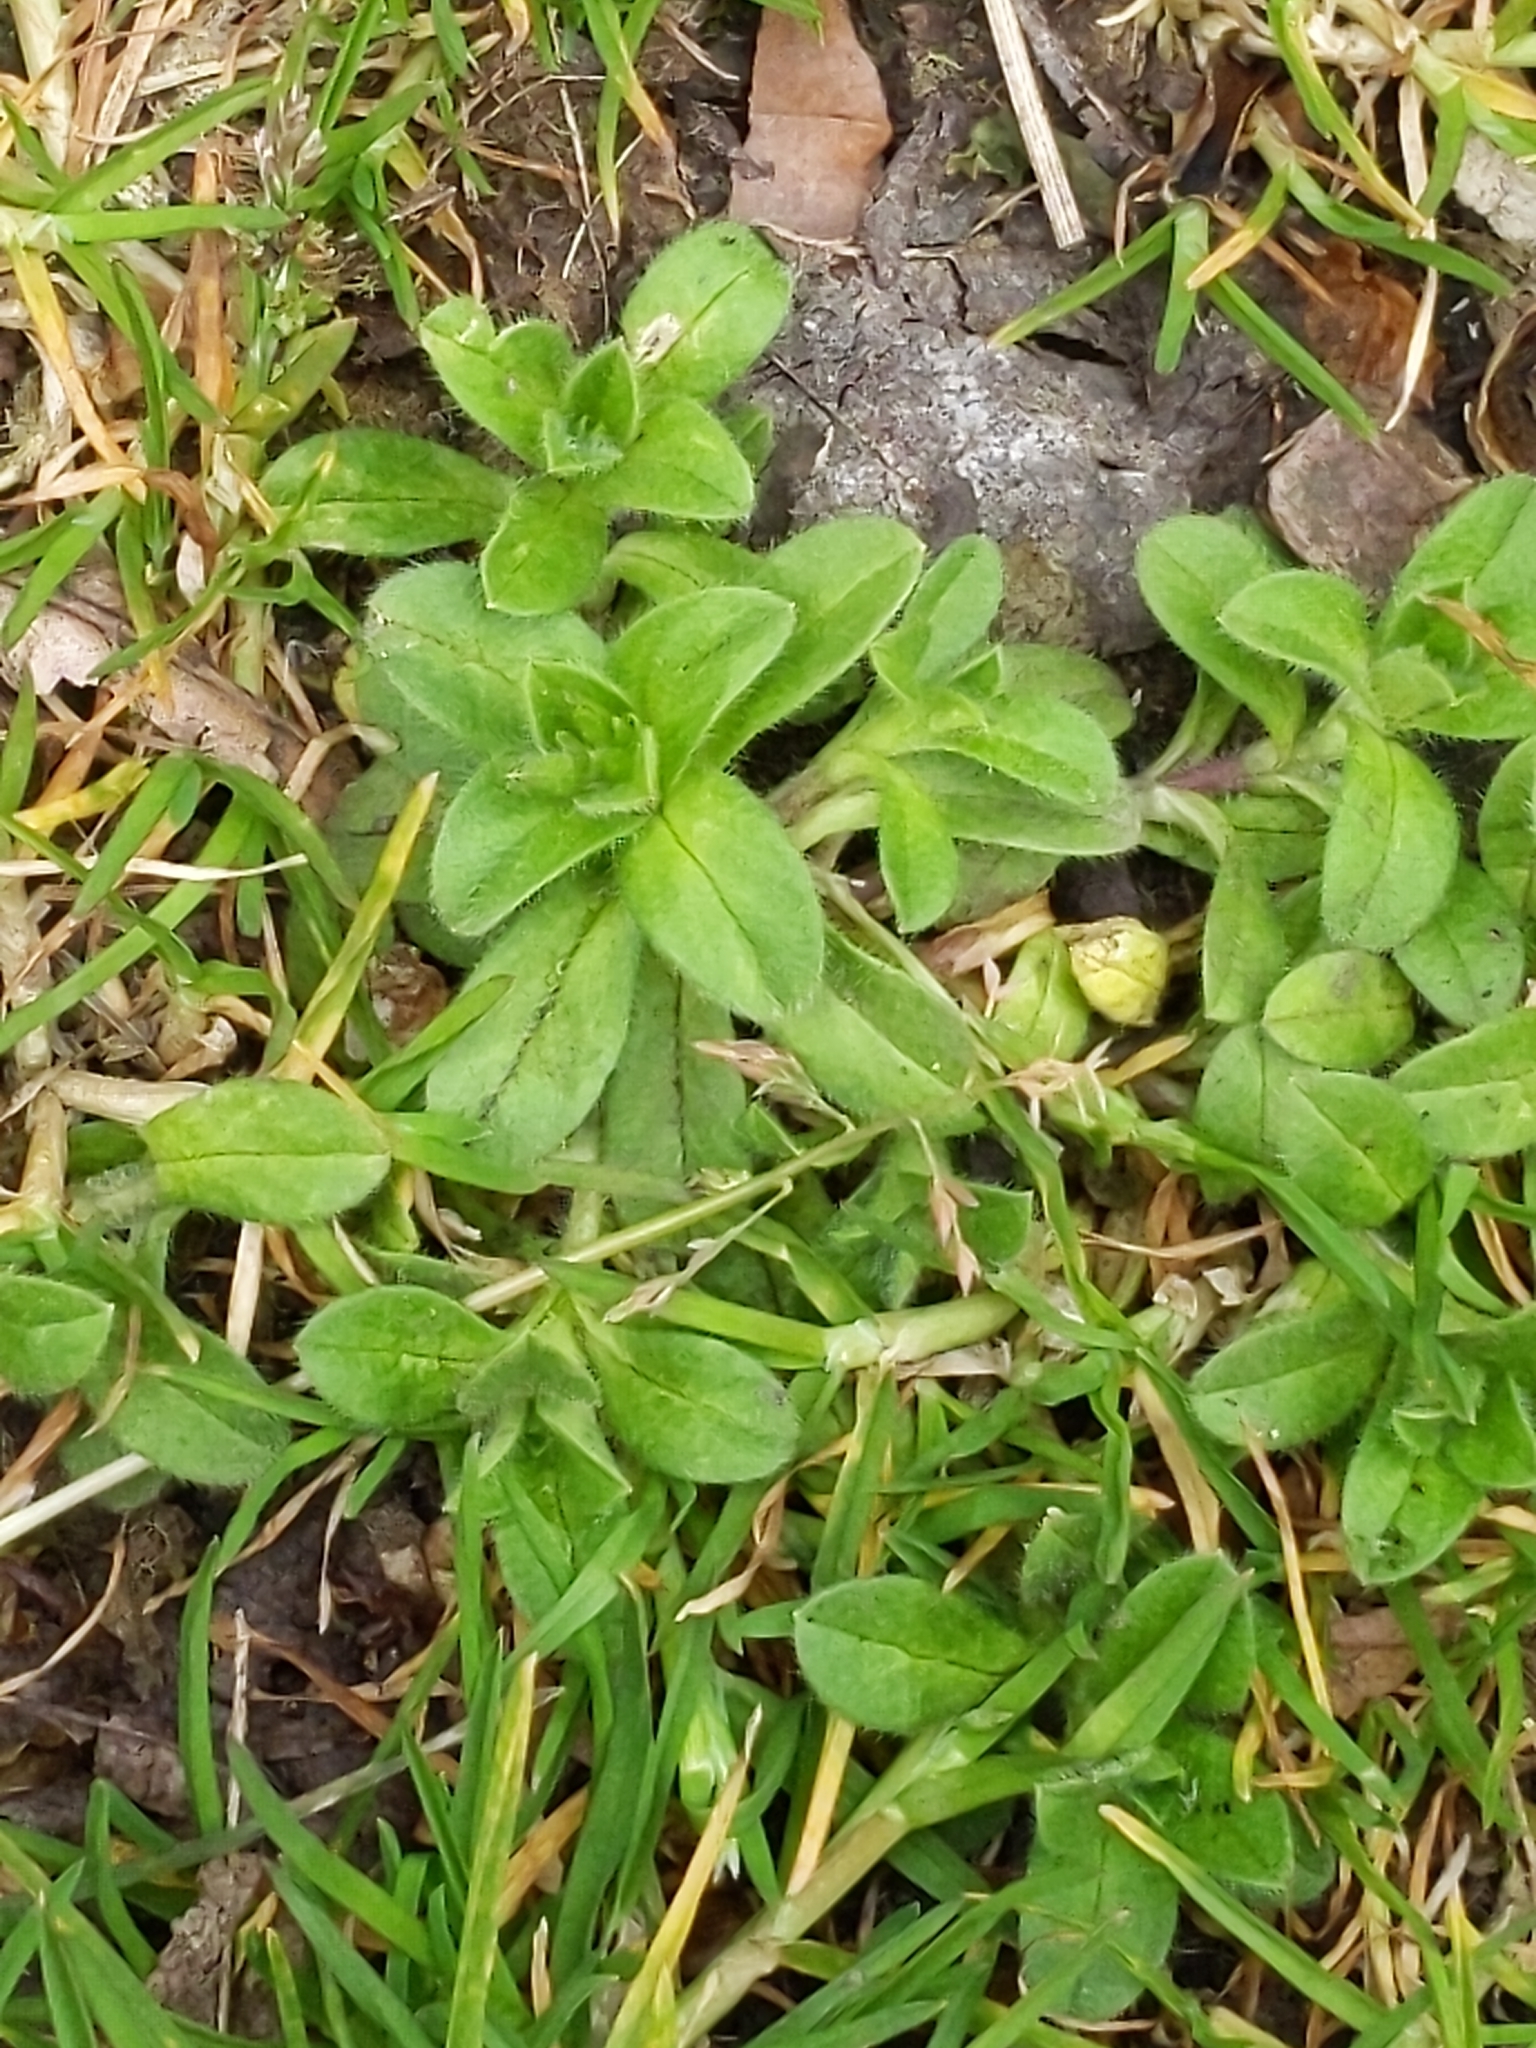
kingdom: Plantae
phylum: Tracheophyta
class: Magnoliopsida
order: Caryophyllales
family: Caryophyllaceae
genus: Cerastium
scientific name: Cerastium glomeratum
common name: Sticky chickweed
